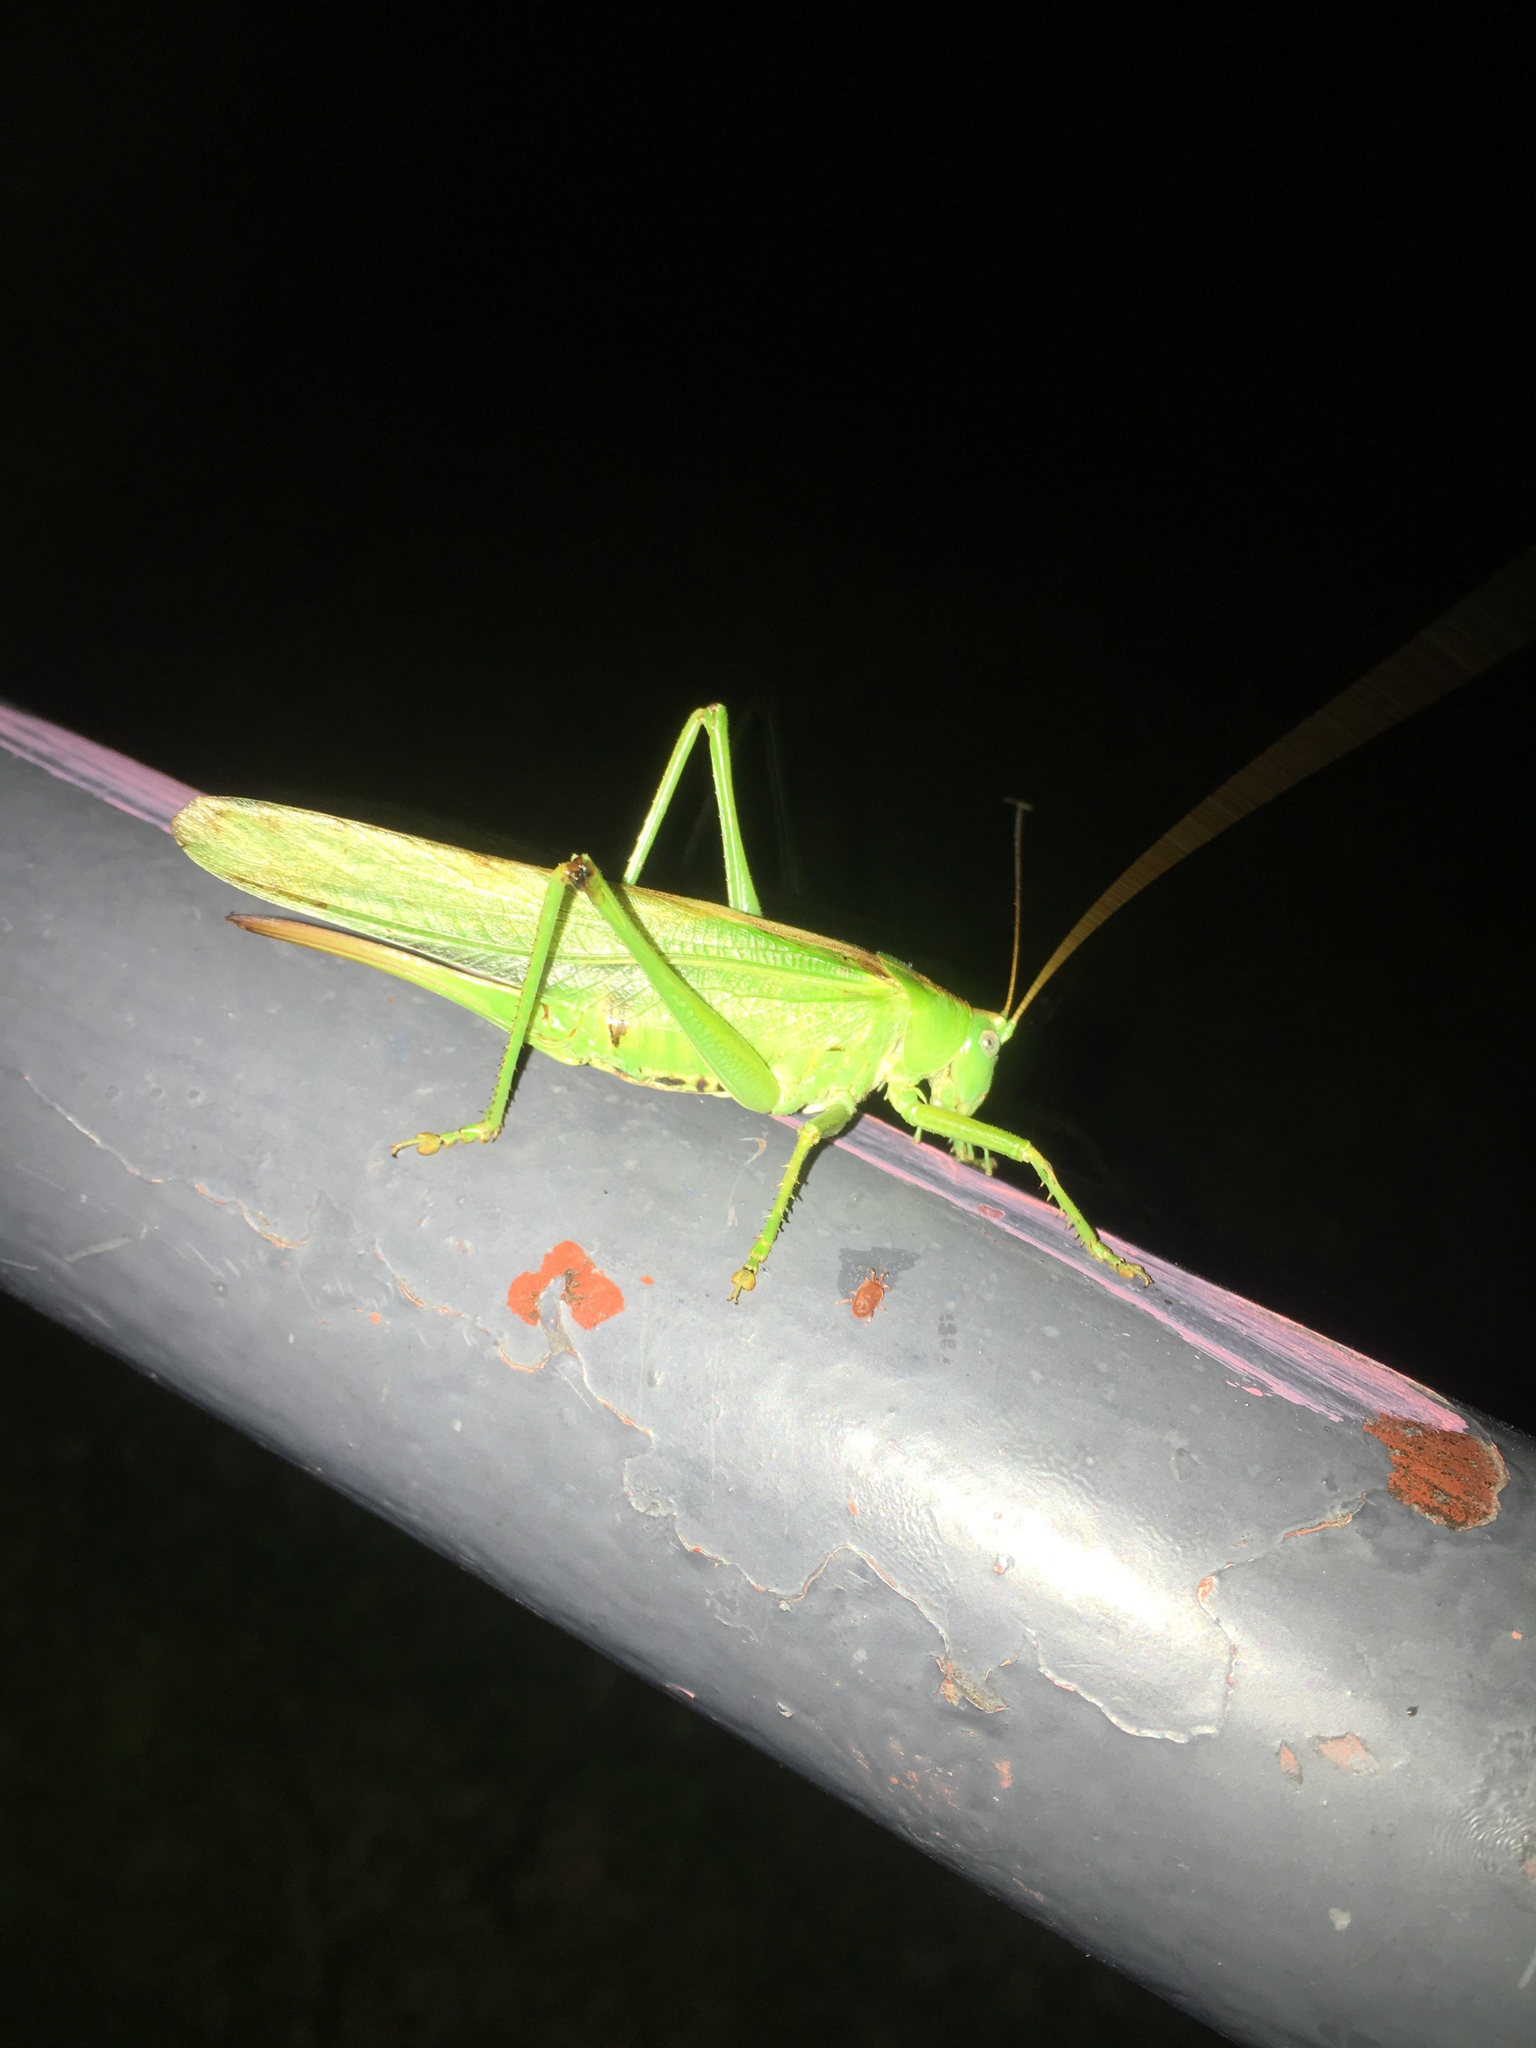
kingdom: Animalia
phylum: Arthropoda
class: Insecta
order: Orthoptera
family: Tettigoniidae
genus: Tettigonia
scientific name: Tettigonia viridissima
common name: Great green bush-cricket
